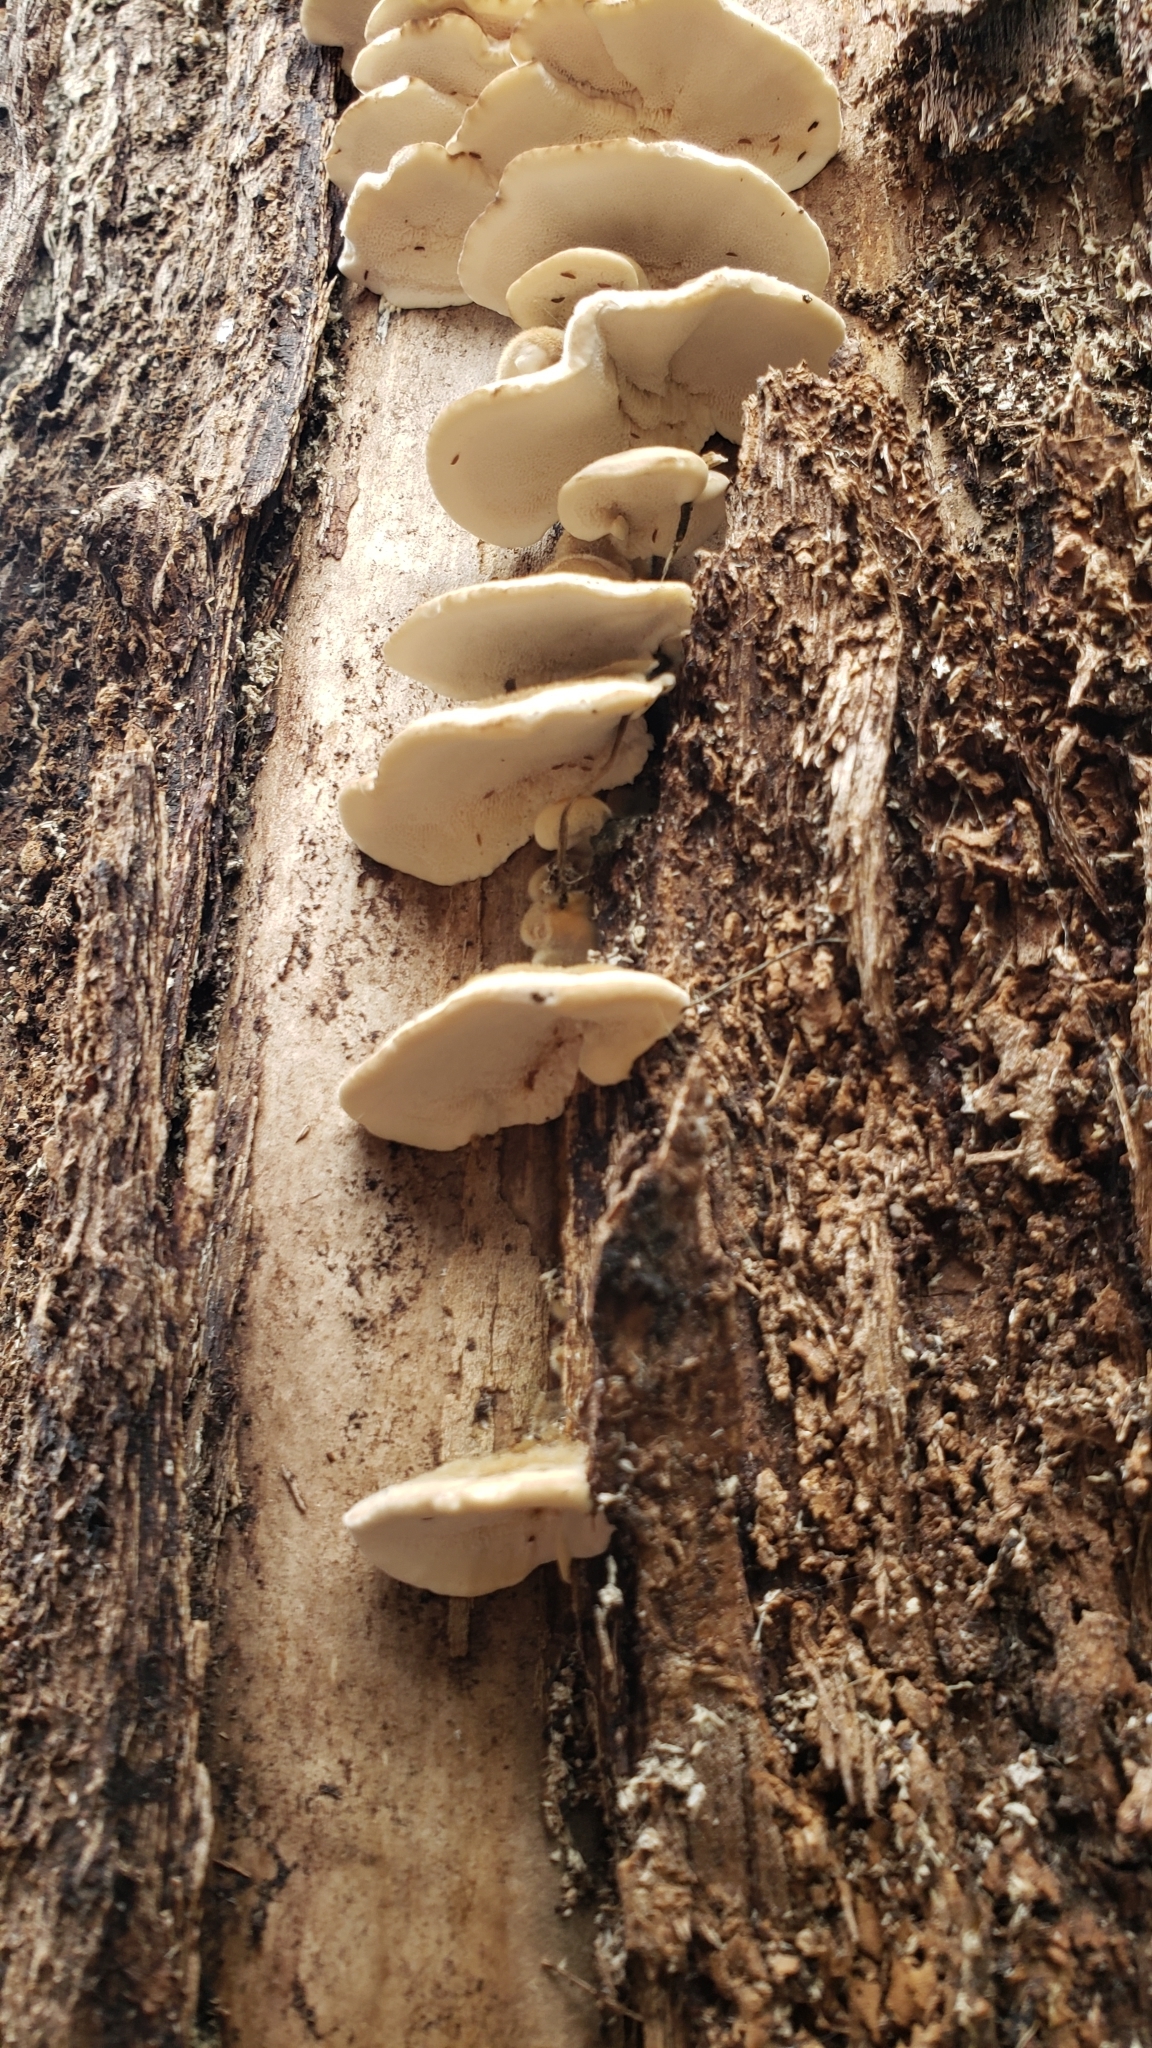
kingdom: Fungi
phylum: Basidiomycota
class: Agaricomycetes
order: Polyporales
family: Polyporaceae
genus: Trametes
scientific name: Trametes versicolor
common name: Turkeytail
